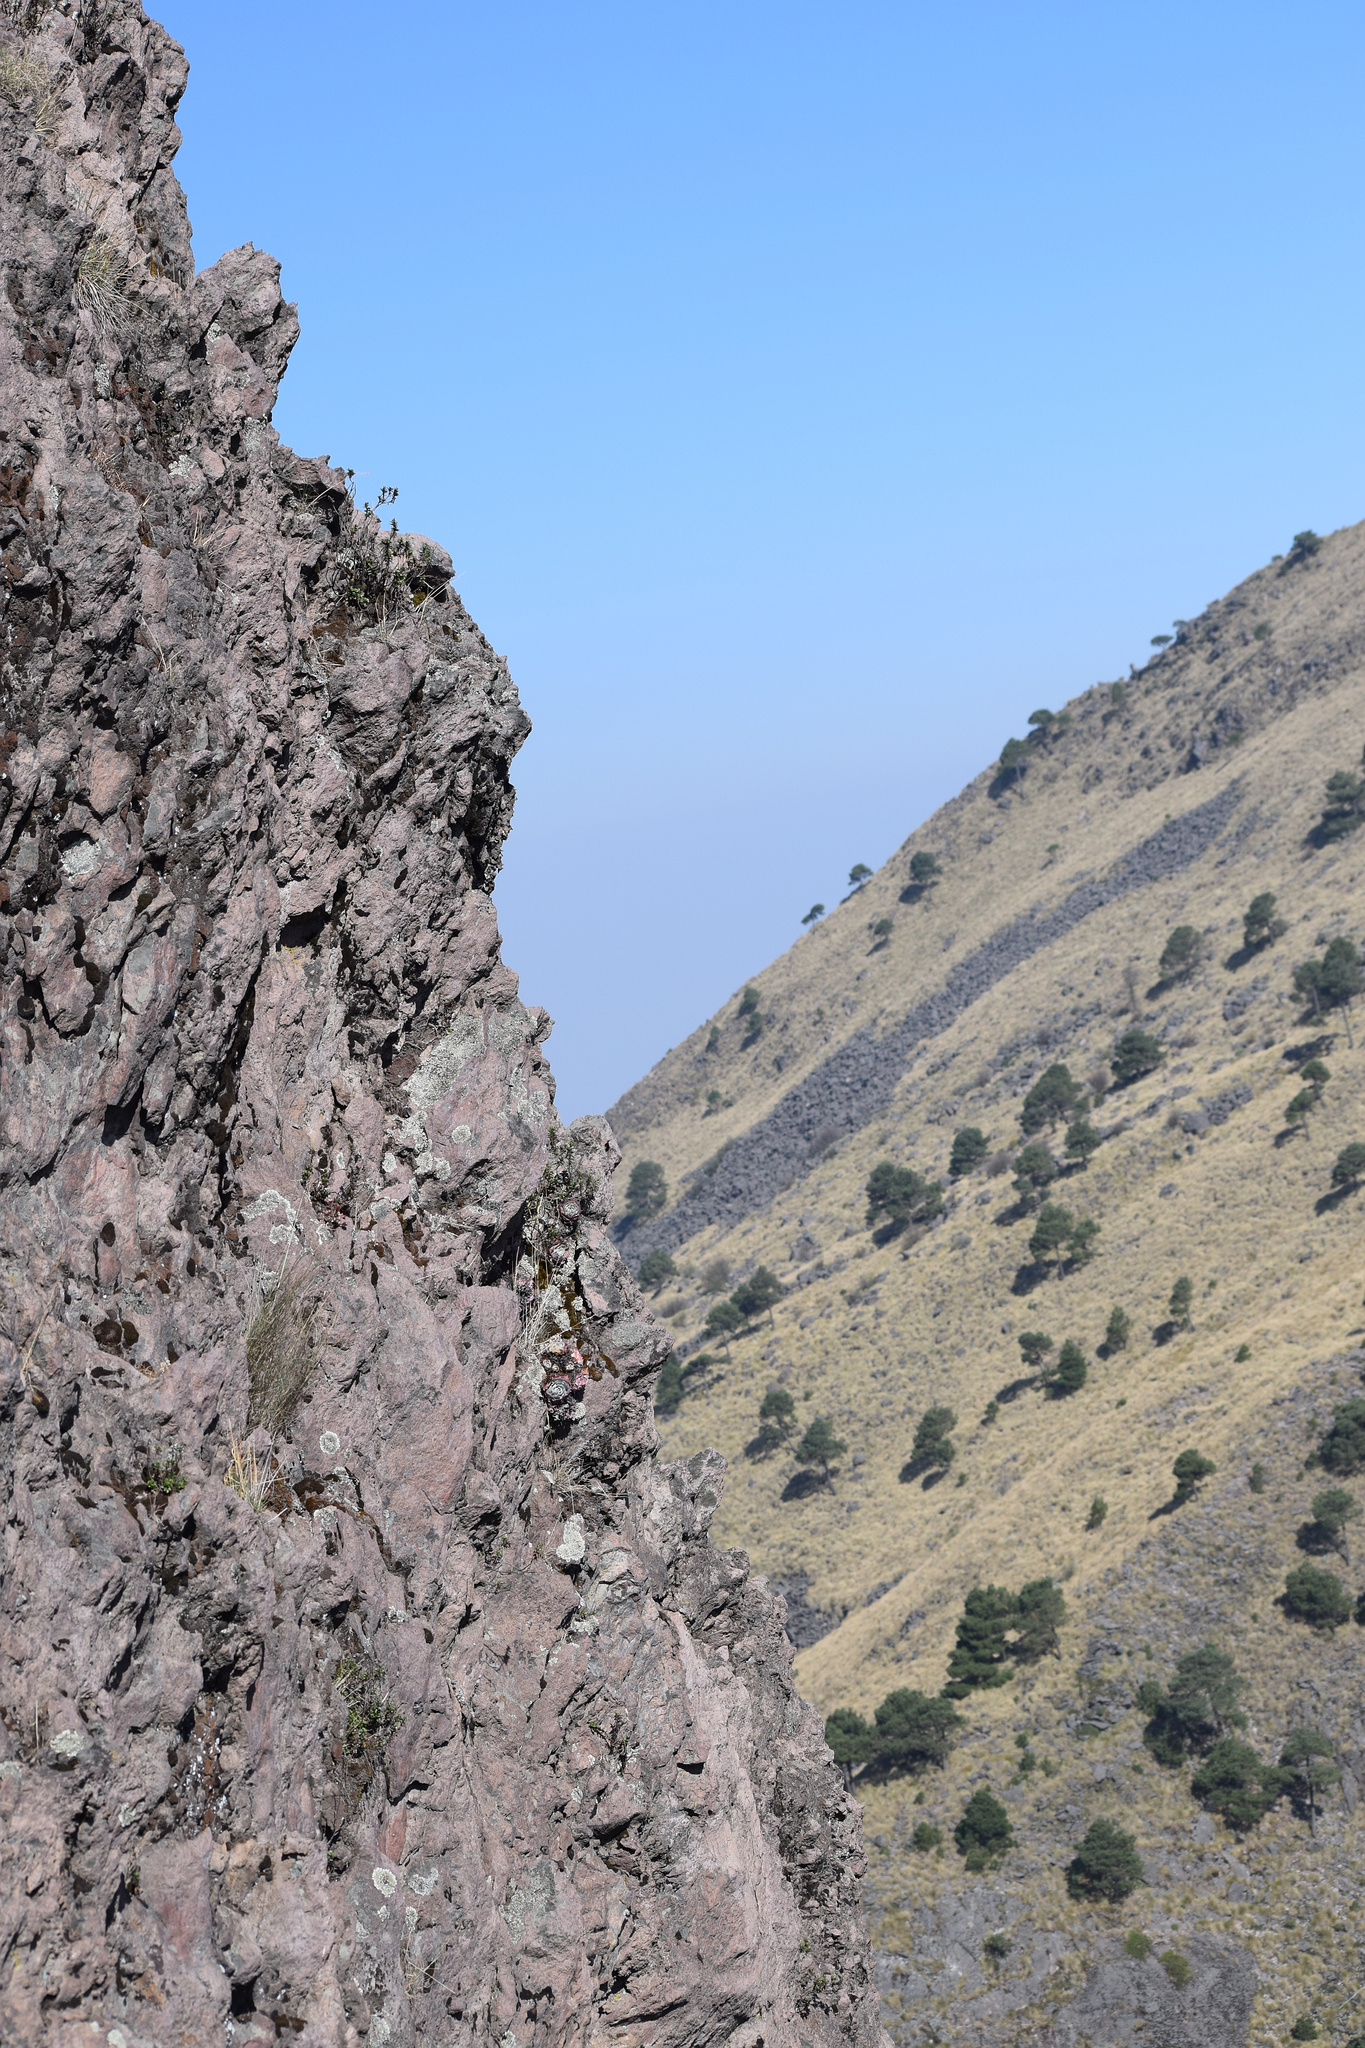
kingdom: Plantae
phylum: Tracheophyta
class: Magnoliopsida
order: Saxifragales
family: Crassulaceae
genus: Echeveria
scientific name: Echeveria secunda
